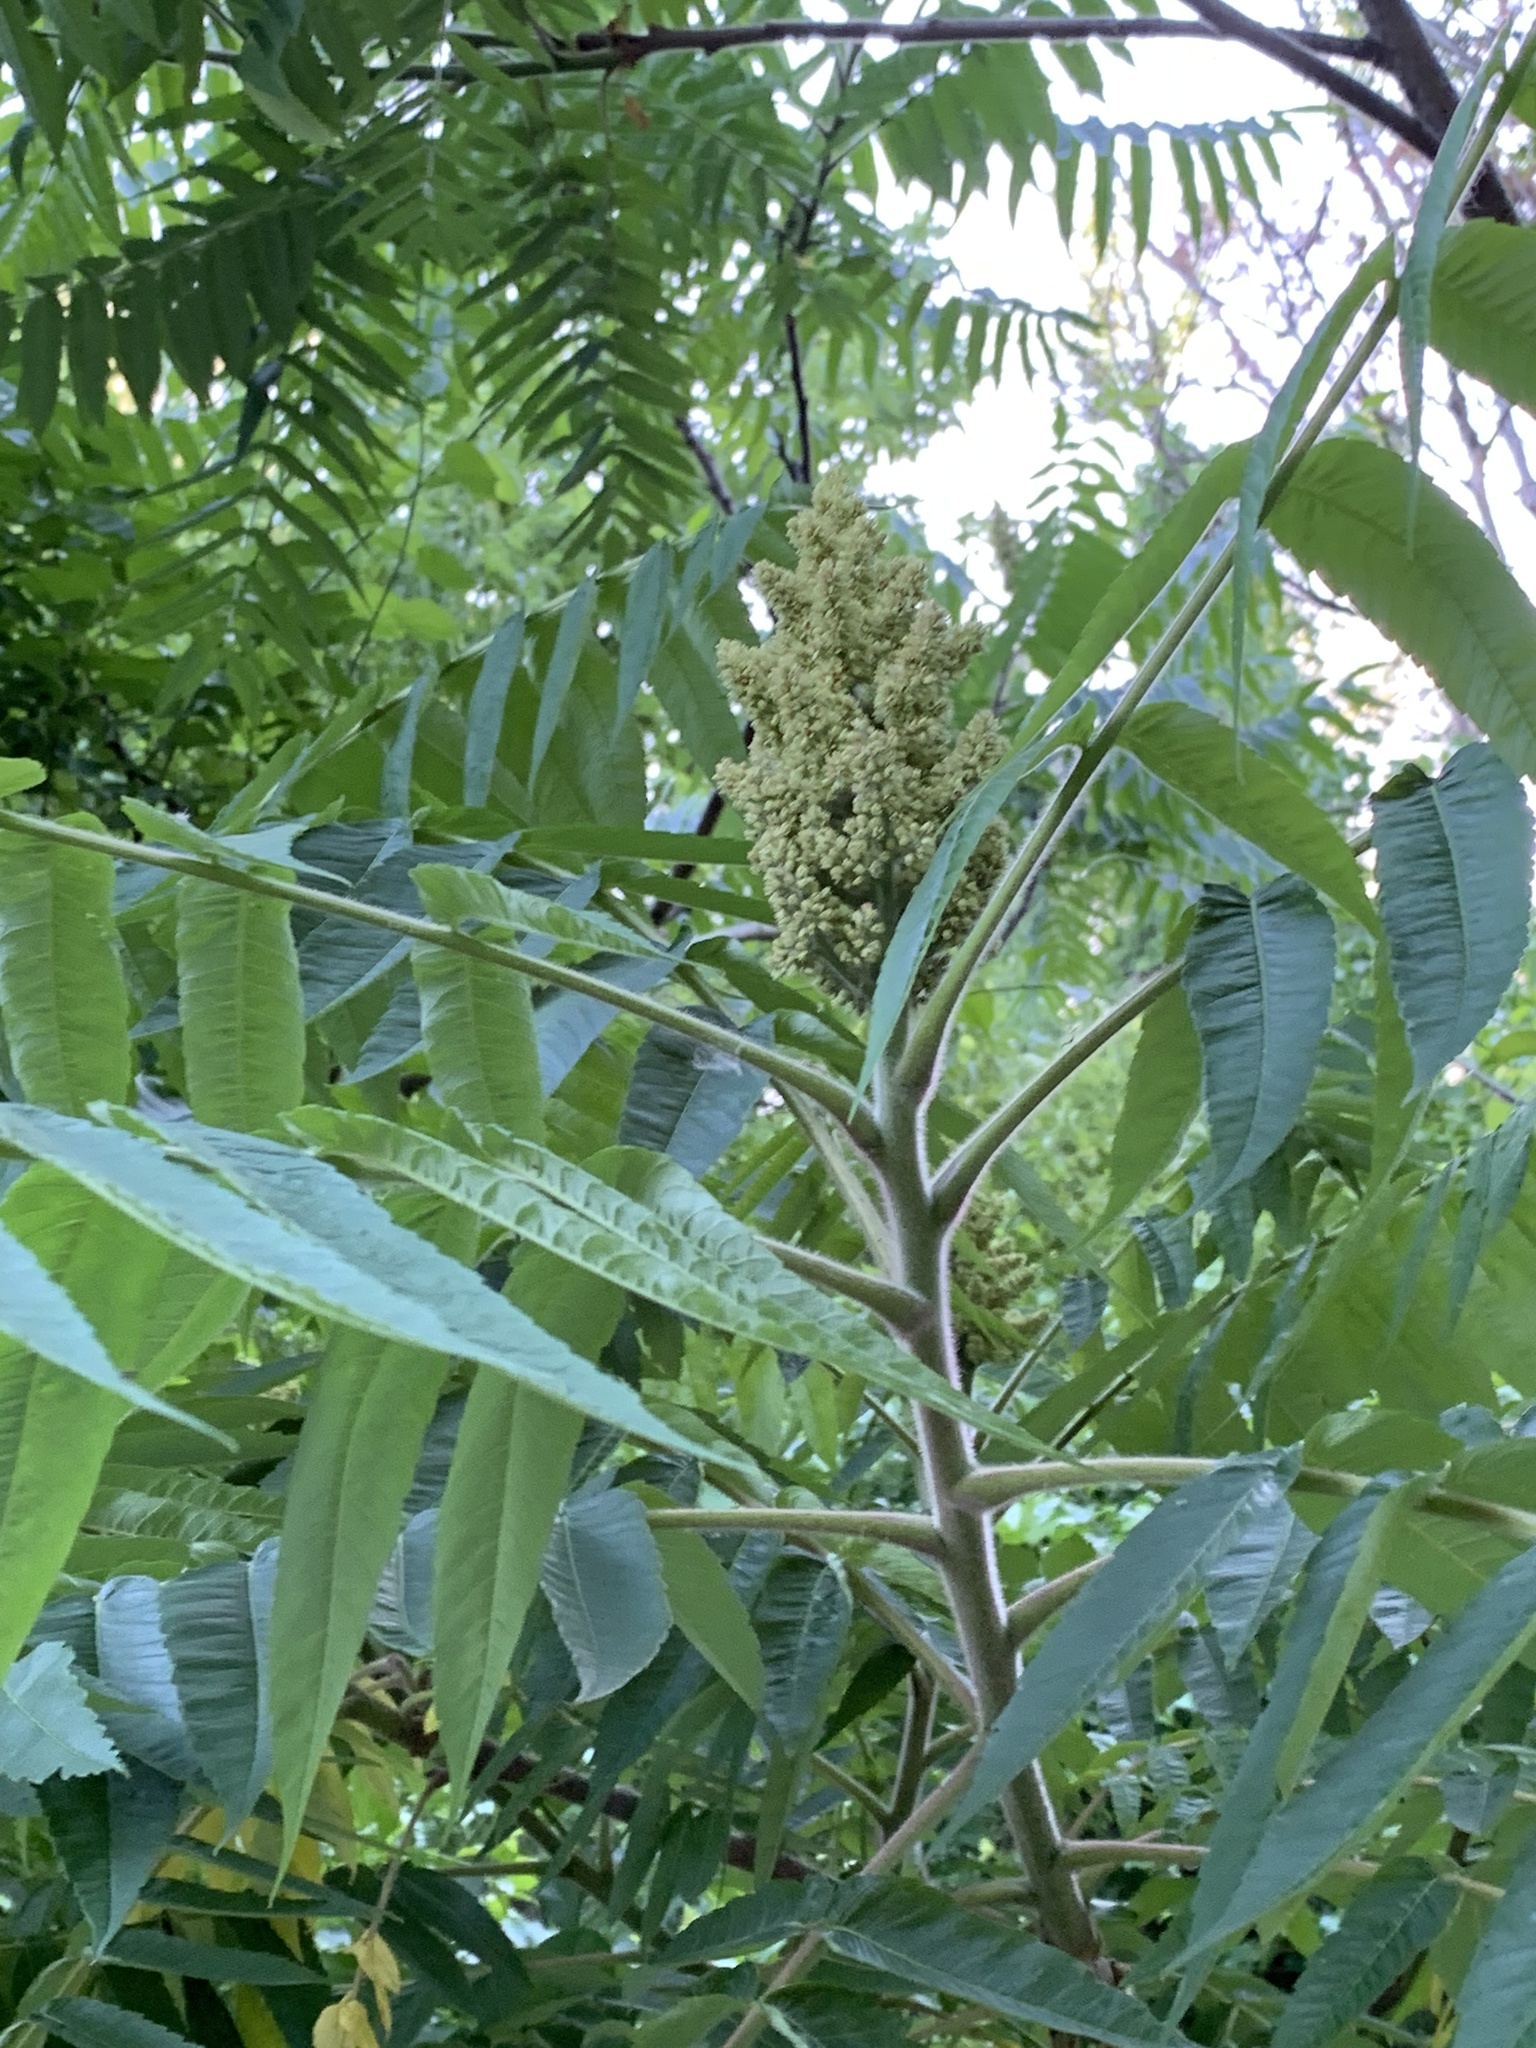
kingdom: Plantae
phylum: Tracheophyta
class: Magnoliopsida
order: Sapindales
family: Anacardiaceae
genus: Rhus
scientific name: Rhus typhina
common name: Staghorn sumac
